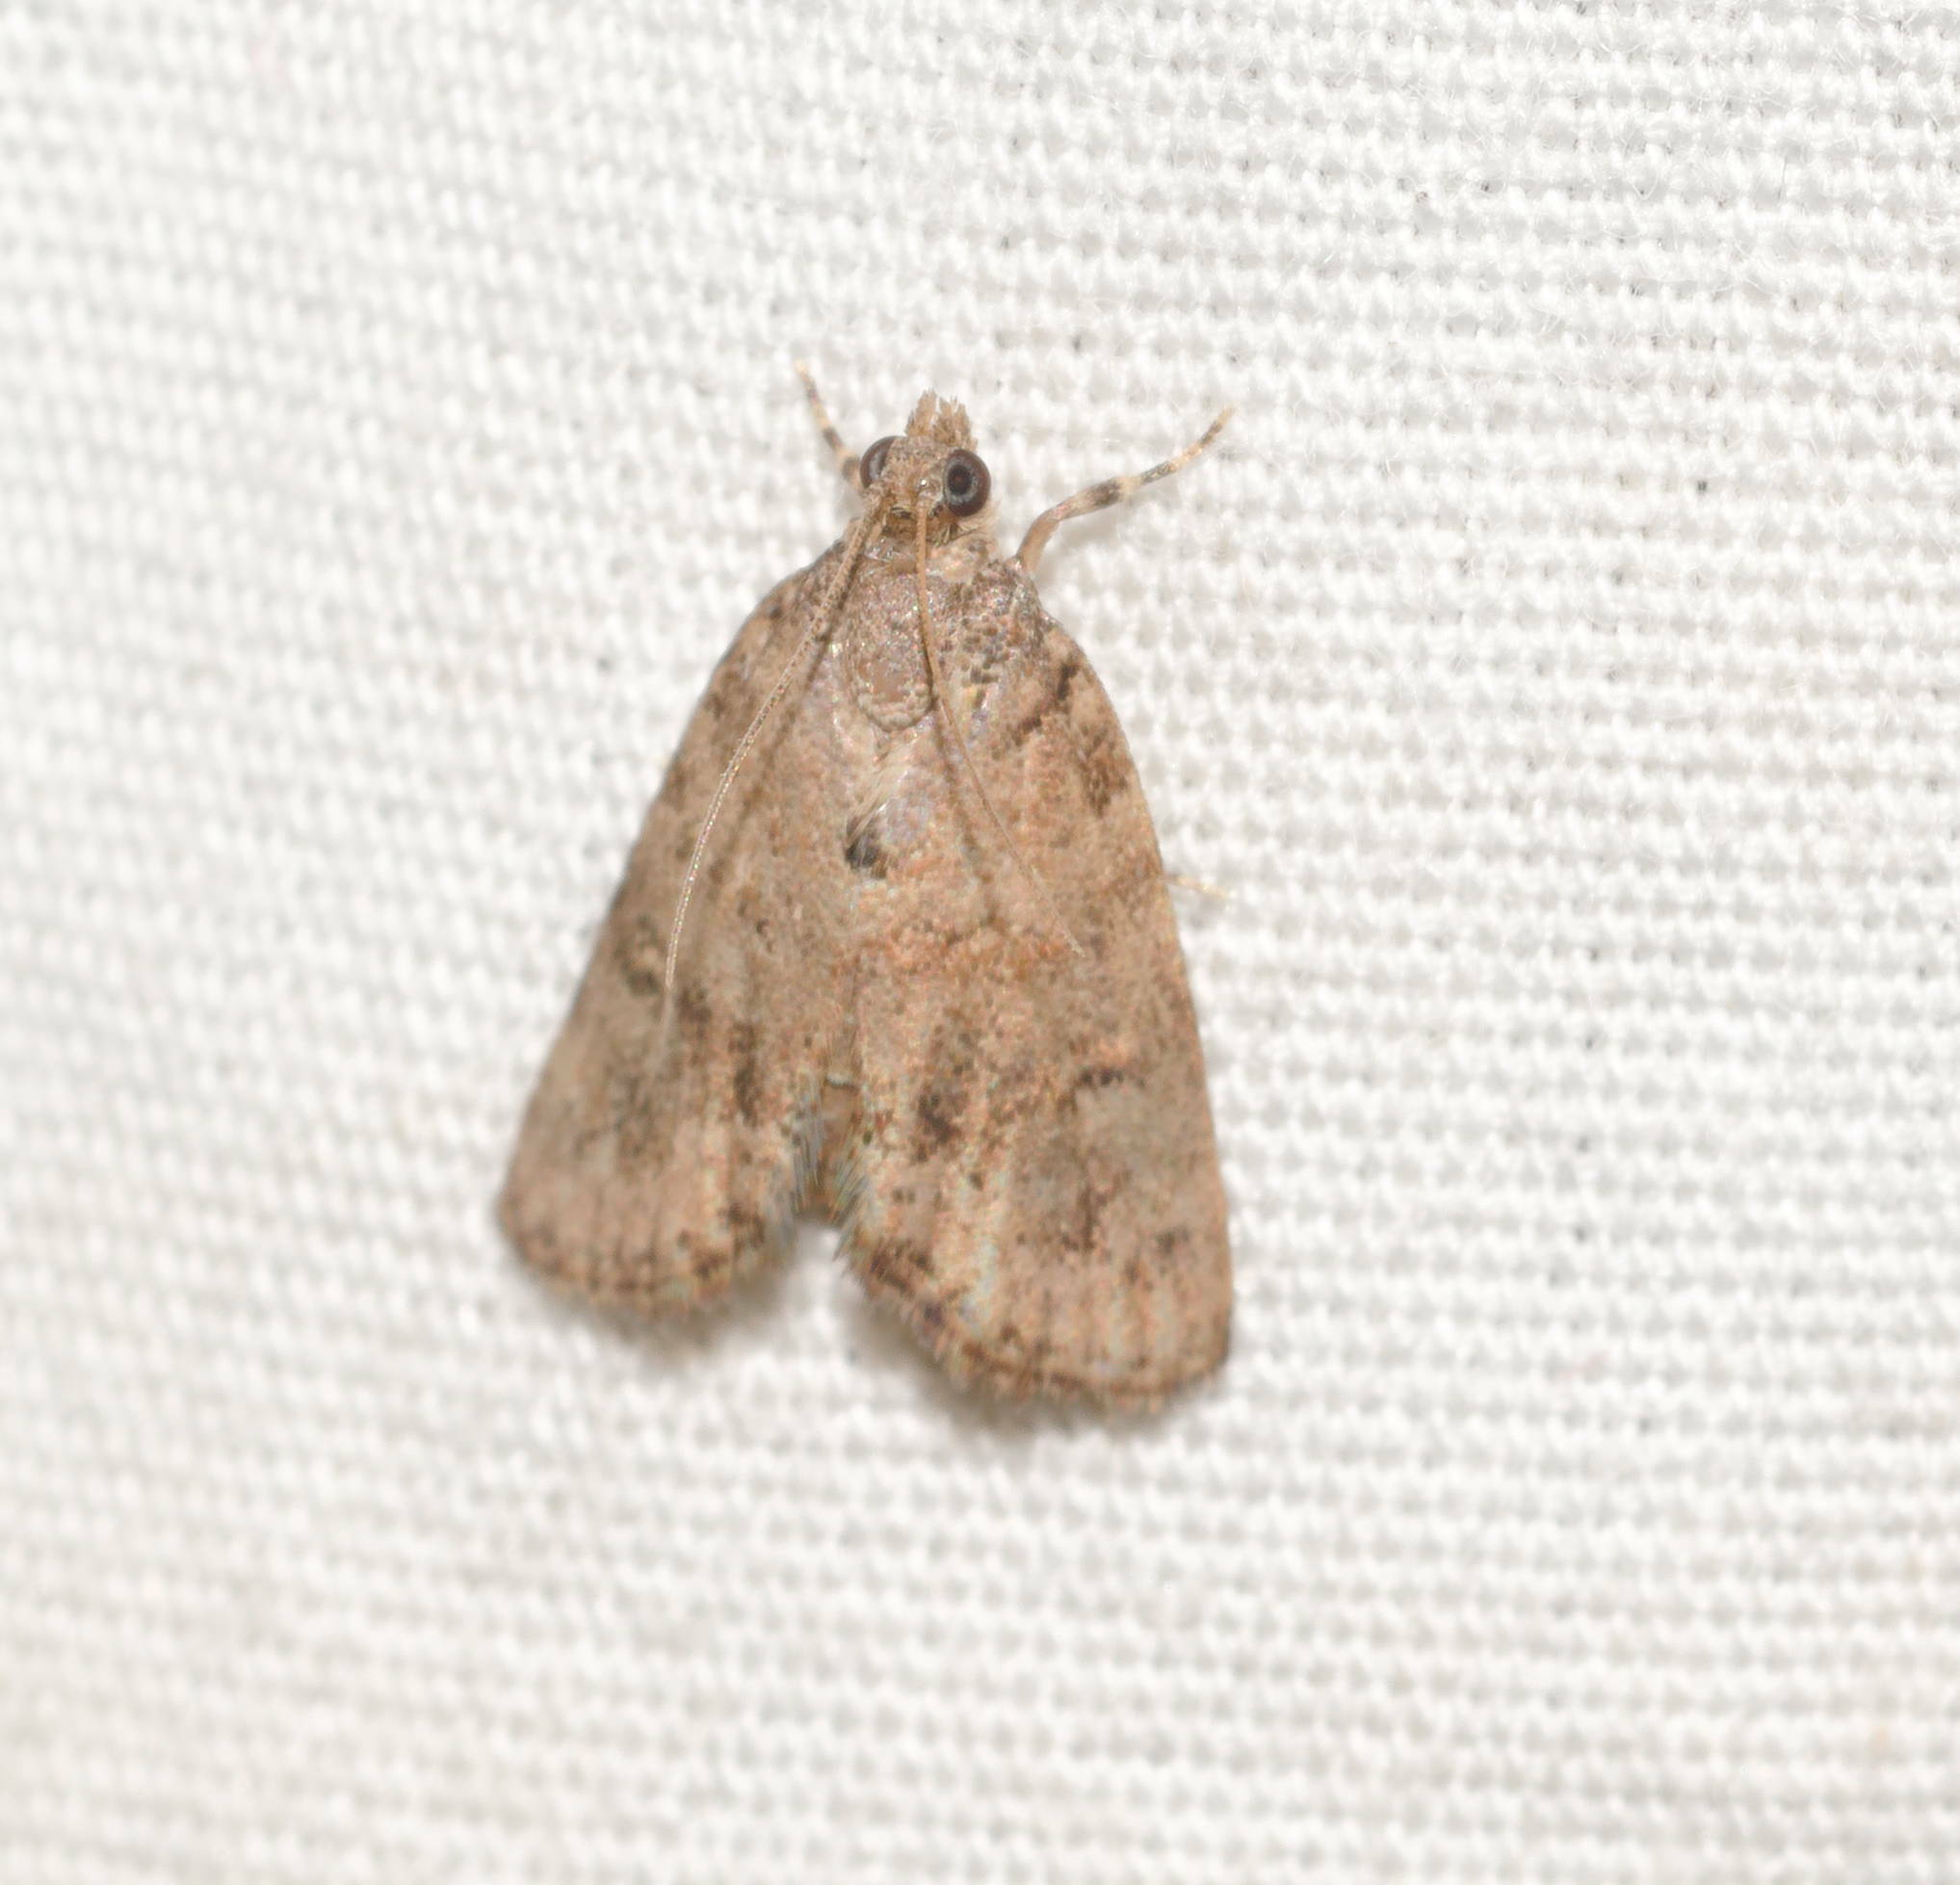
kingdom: Animalia
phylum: Arthropoda
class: Insecta
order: Lepidoptera
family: Crambidae
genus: Mestolobes
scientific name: Mestolobes abnormis
